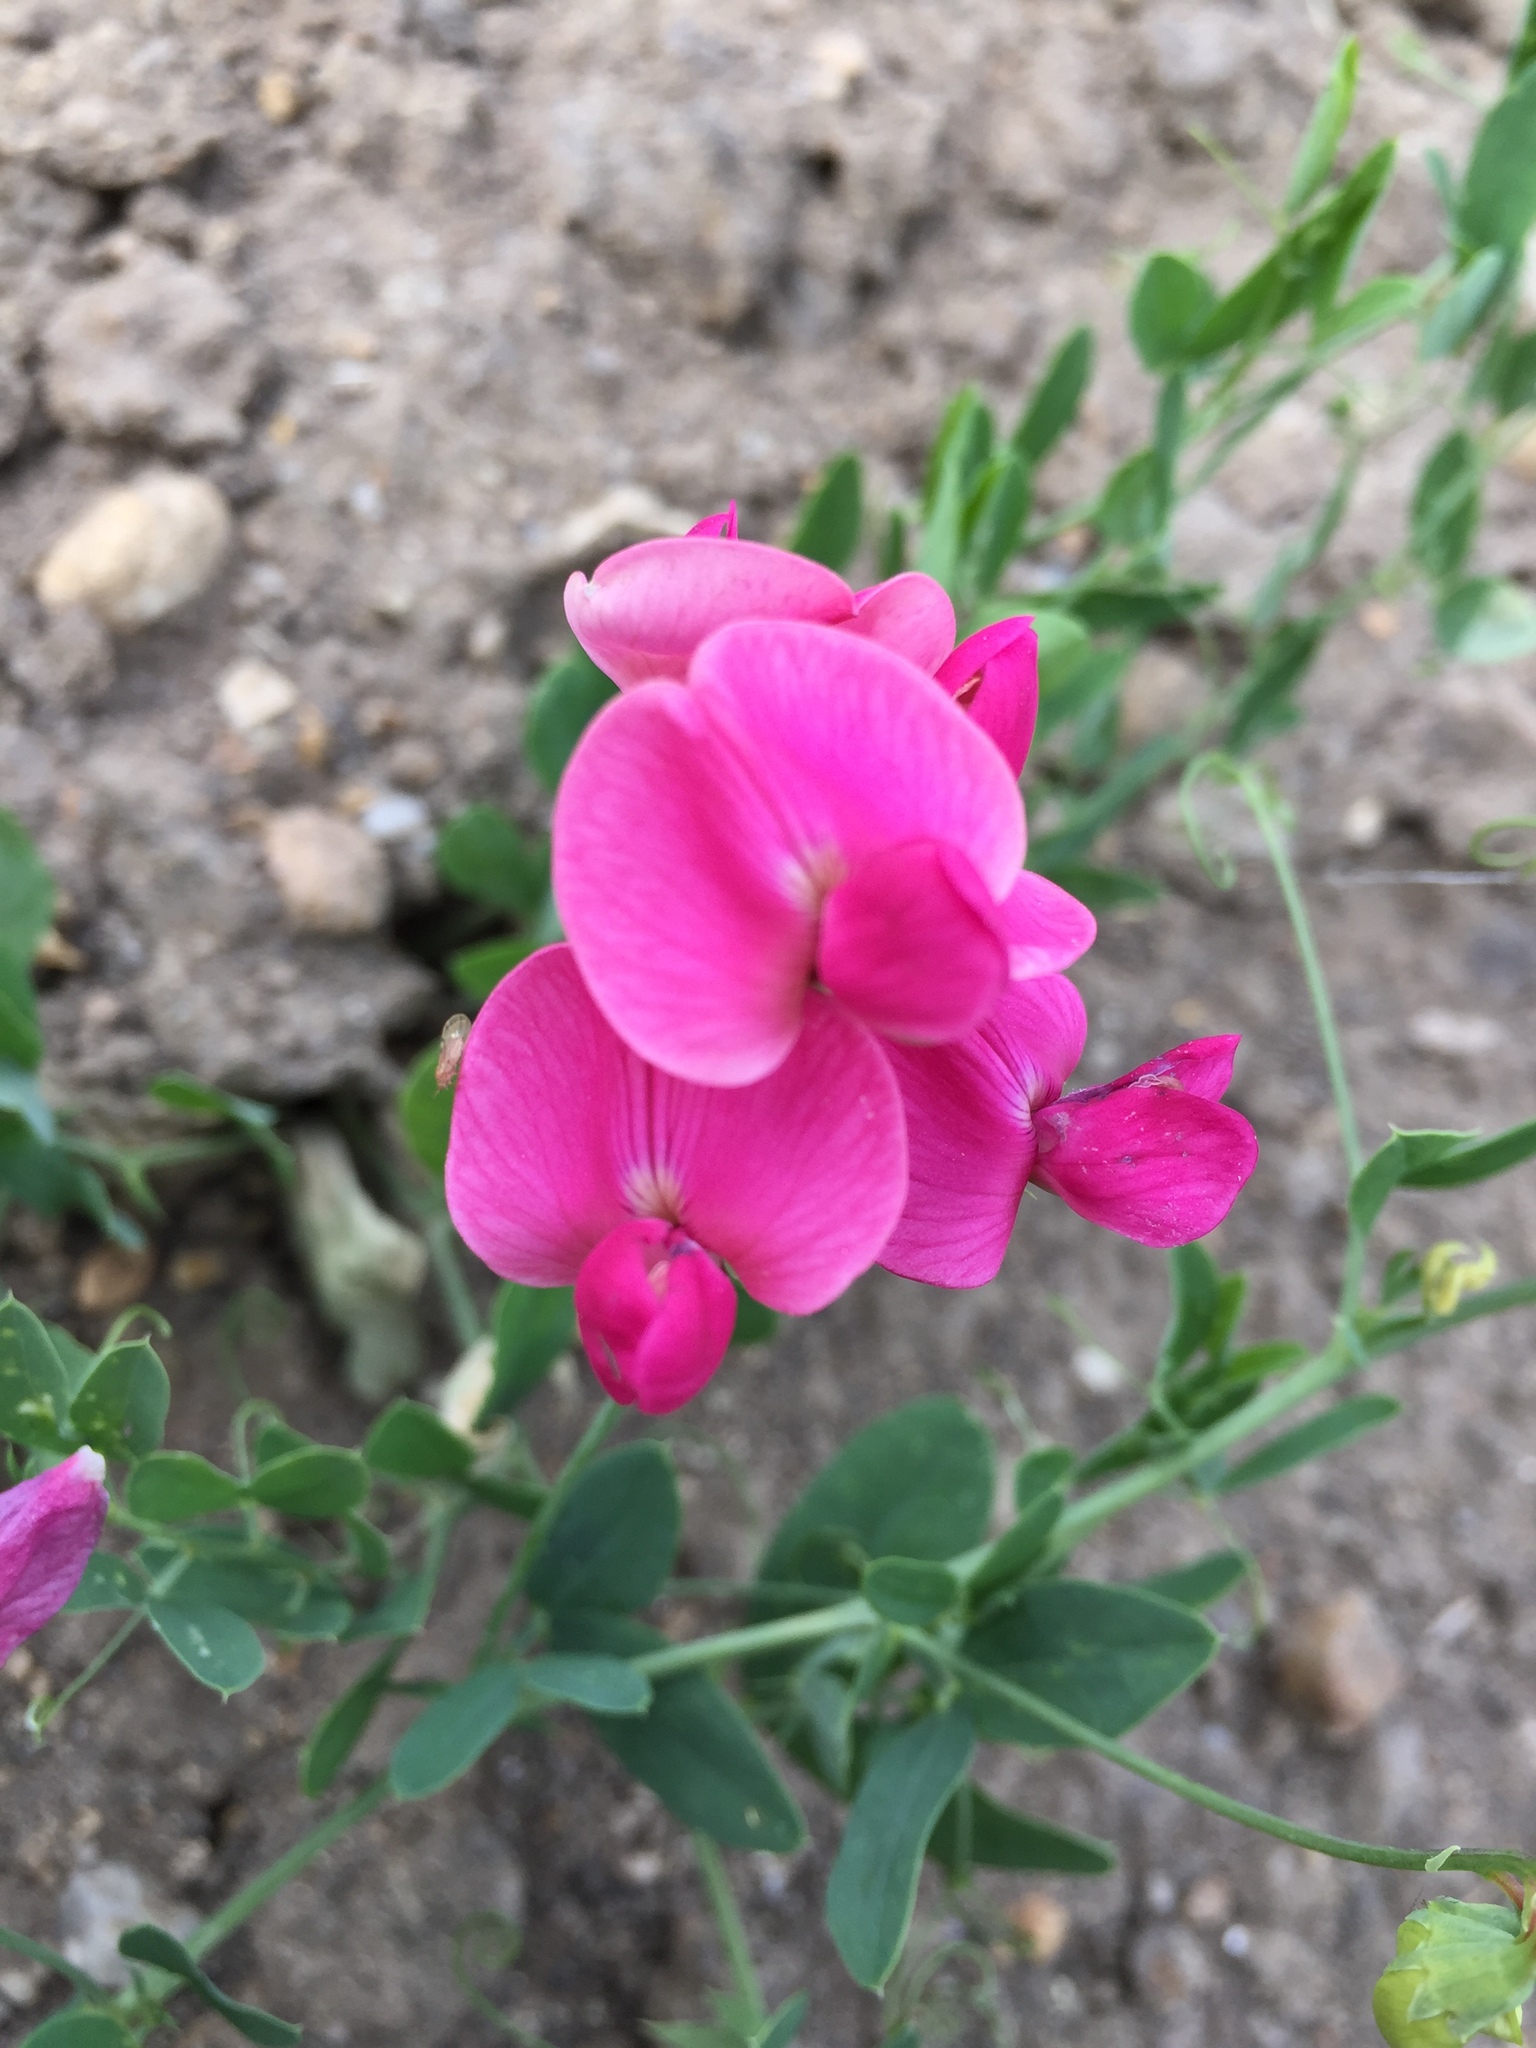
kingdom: Plantae
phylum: Tracheophyta
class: Magnoliopsida
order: Fabales
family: Fabaceae
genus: Lathyrus
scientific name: Lathyrus tuberosus
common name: Tuberous pea
